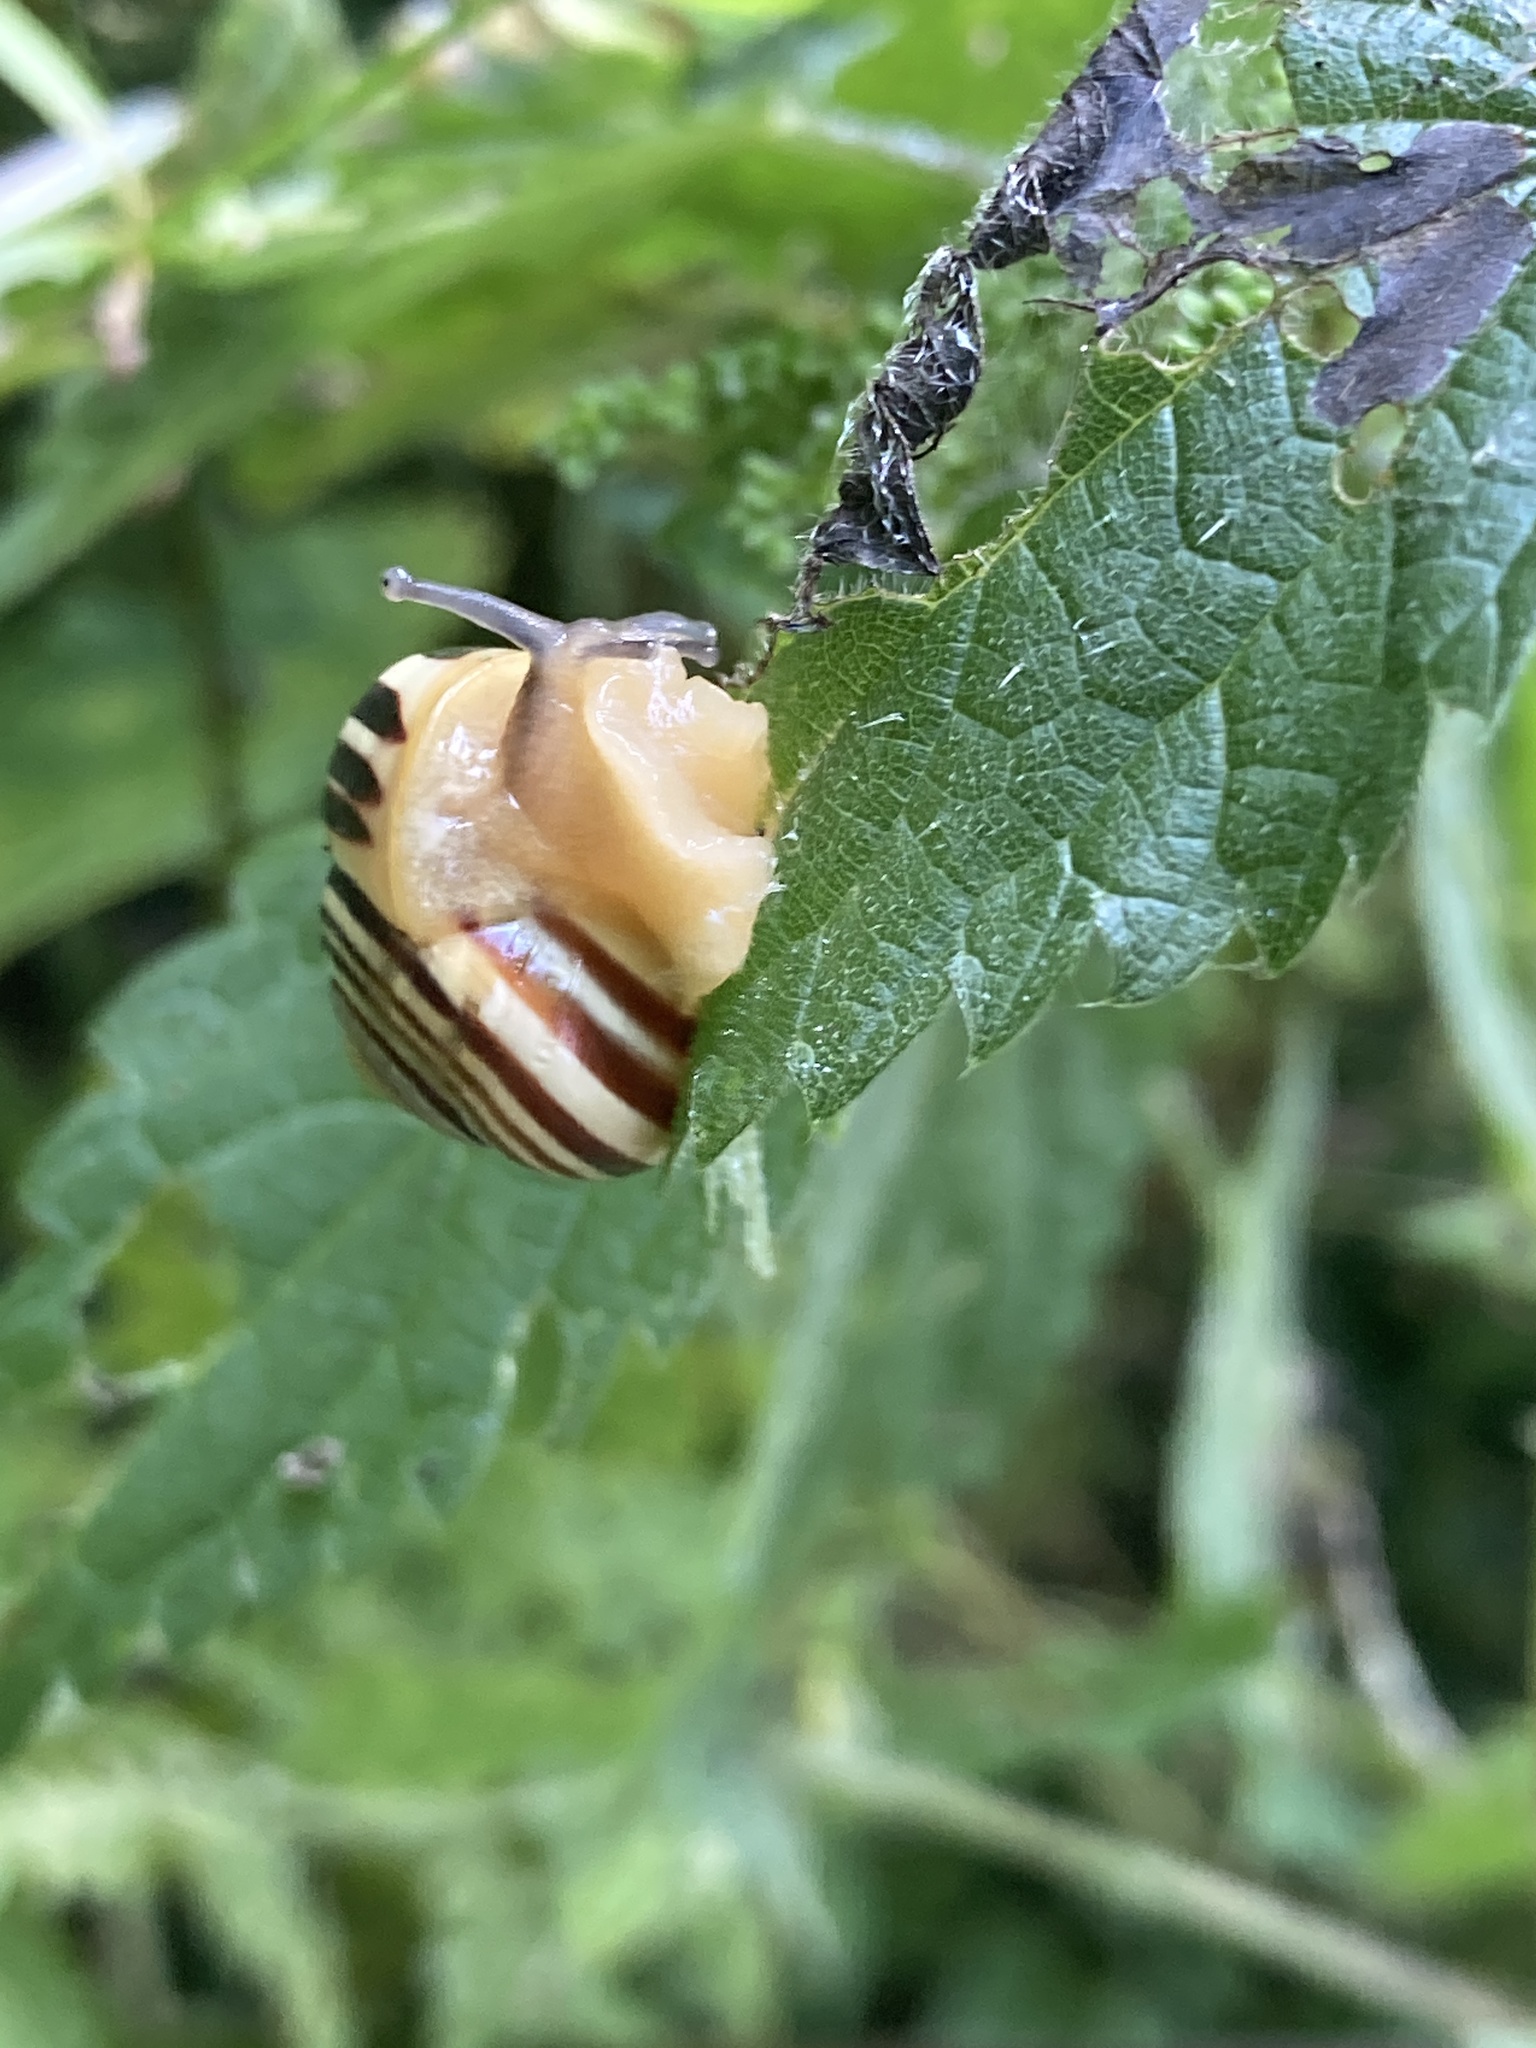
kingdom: Animalia
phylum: Mollusca
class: Gastropoda
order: Stylommatophora
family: Helicidae
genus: Cepaea
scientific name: Cepaea hortensis
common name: White-lip gardensnail
